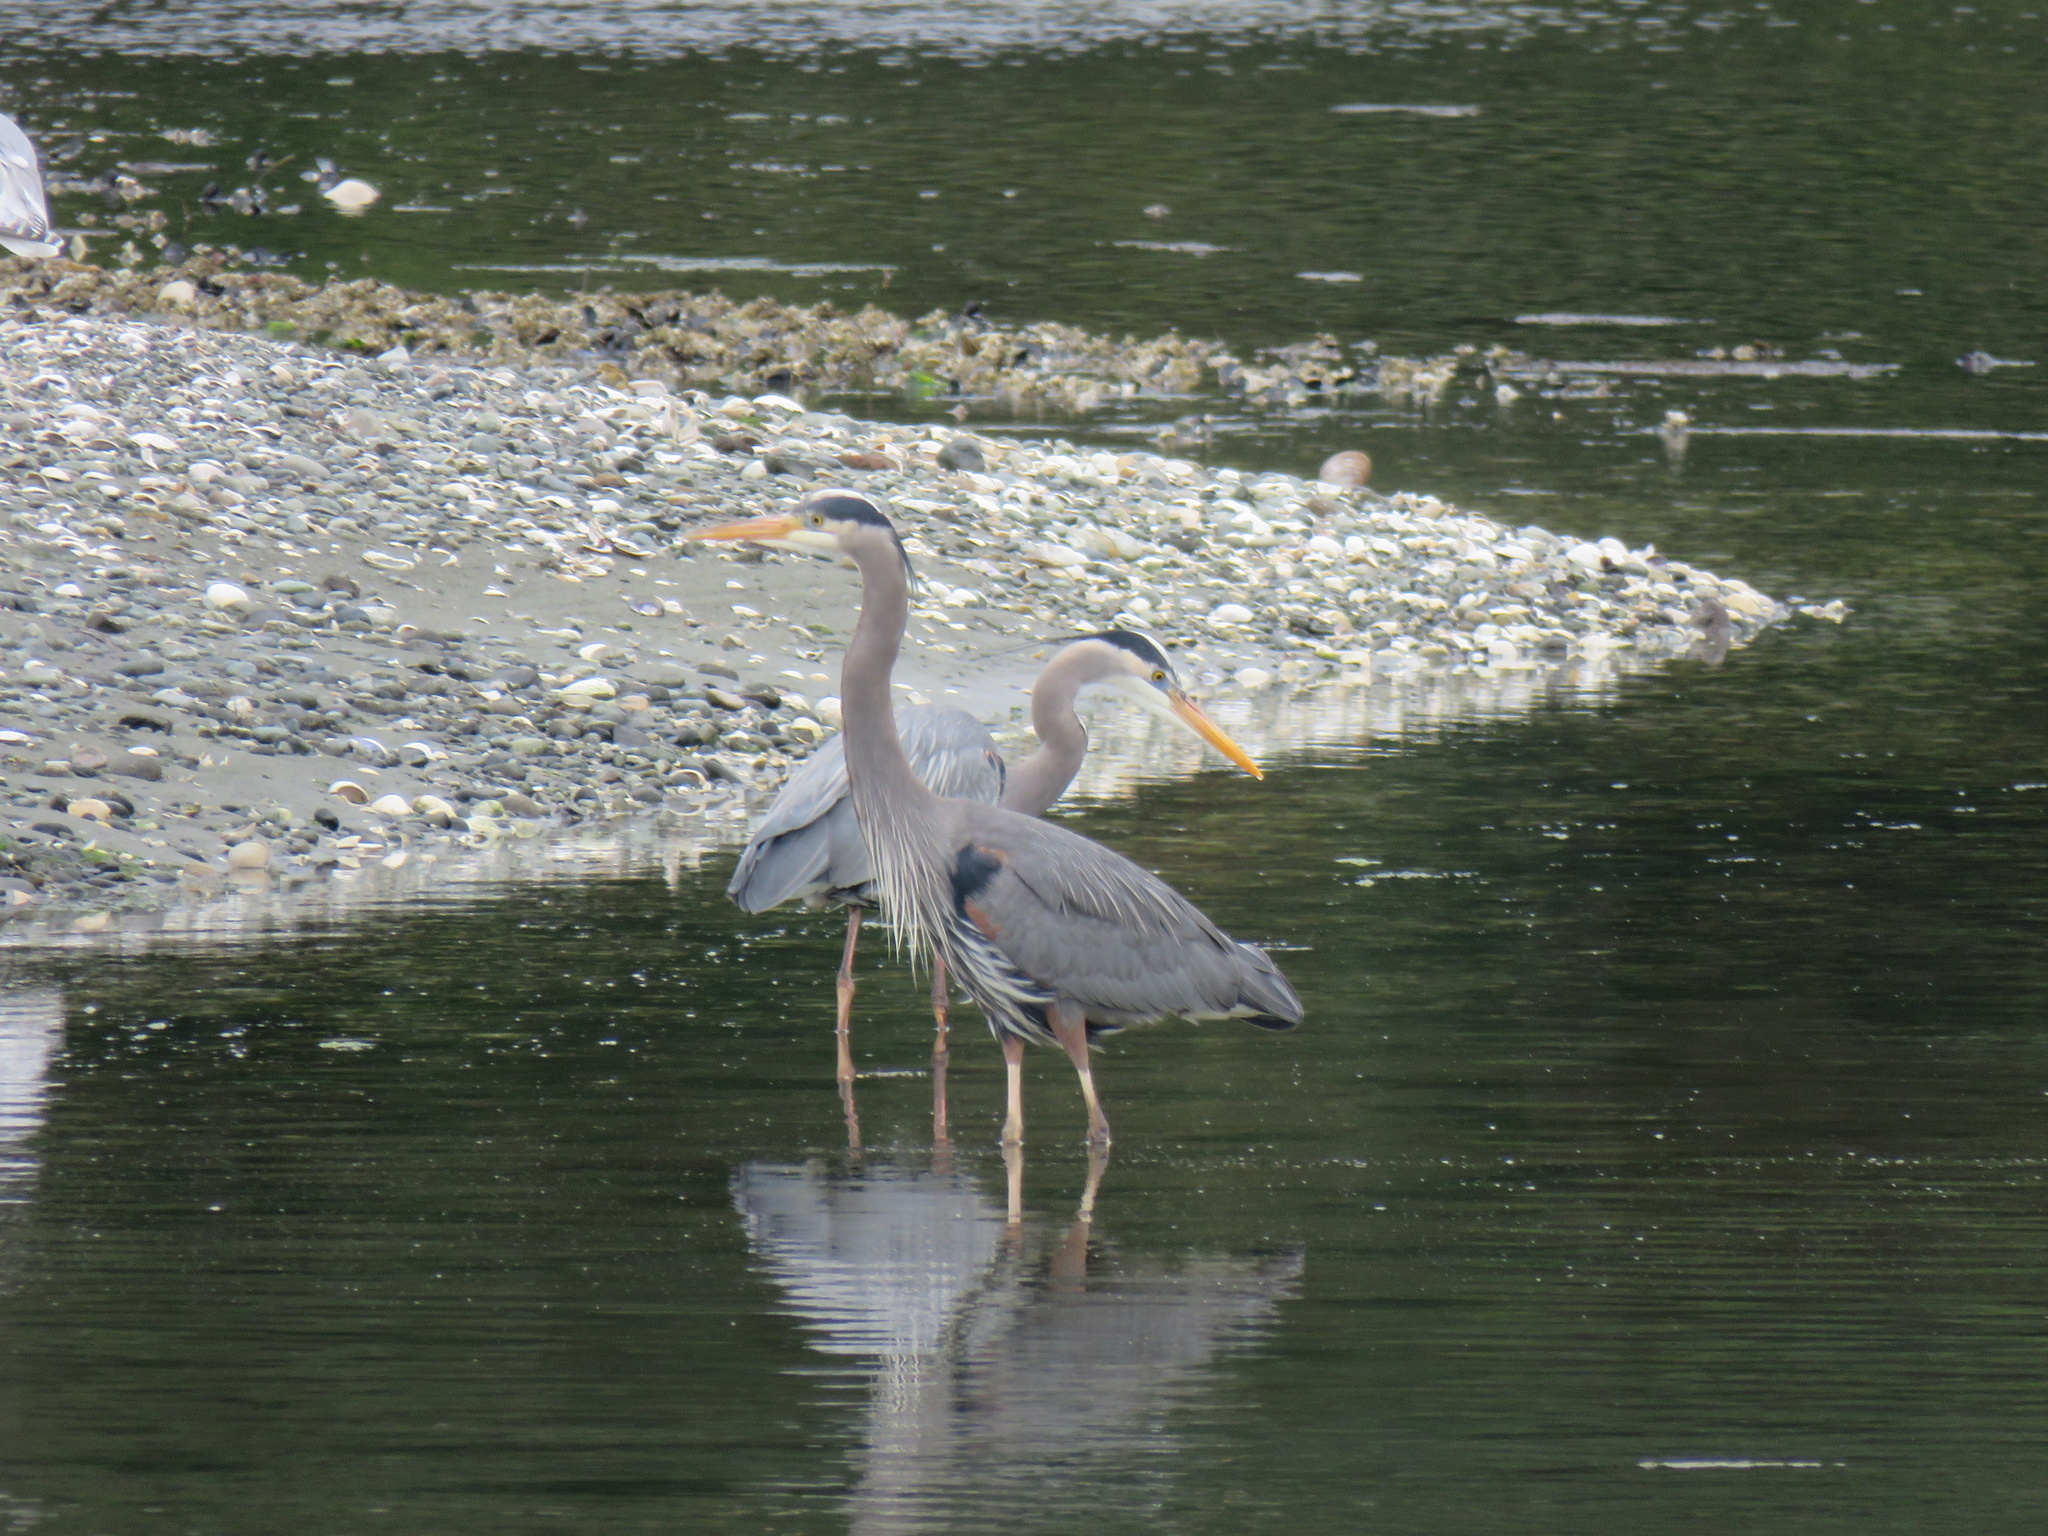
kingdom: Animalia
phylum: Chordata
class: Aves
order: Pelecaniformes
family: Ardeidae
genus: Ardea
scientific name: Ardea herodias
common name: Great blue heron
